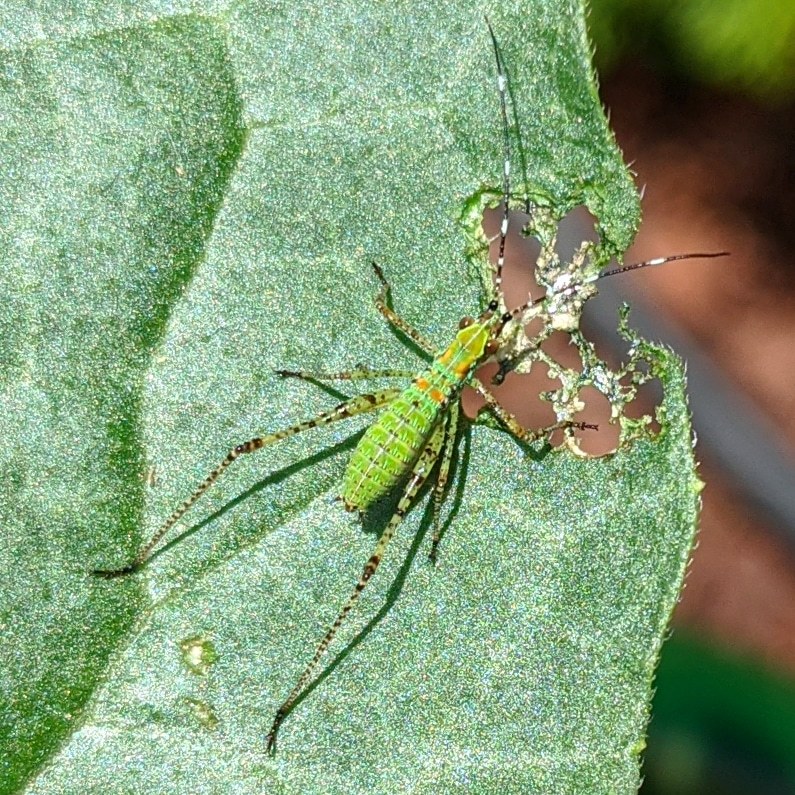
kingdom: Animalia
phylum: Arthropoda
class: Insecta
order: Orthoptera
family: Tettigoniidae
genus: Scudderia
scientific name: Scudderia furcata
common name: Fork-tailed bush katydid
